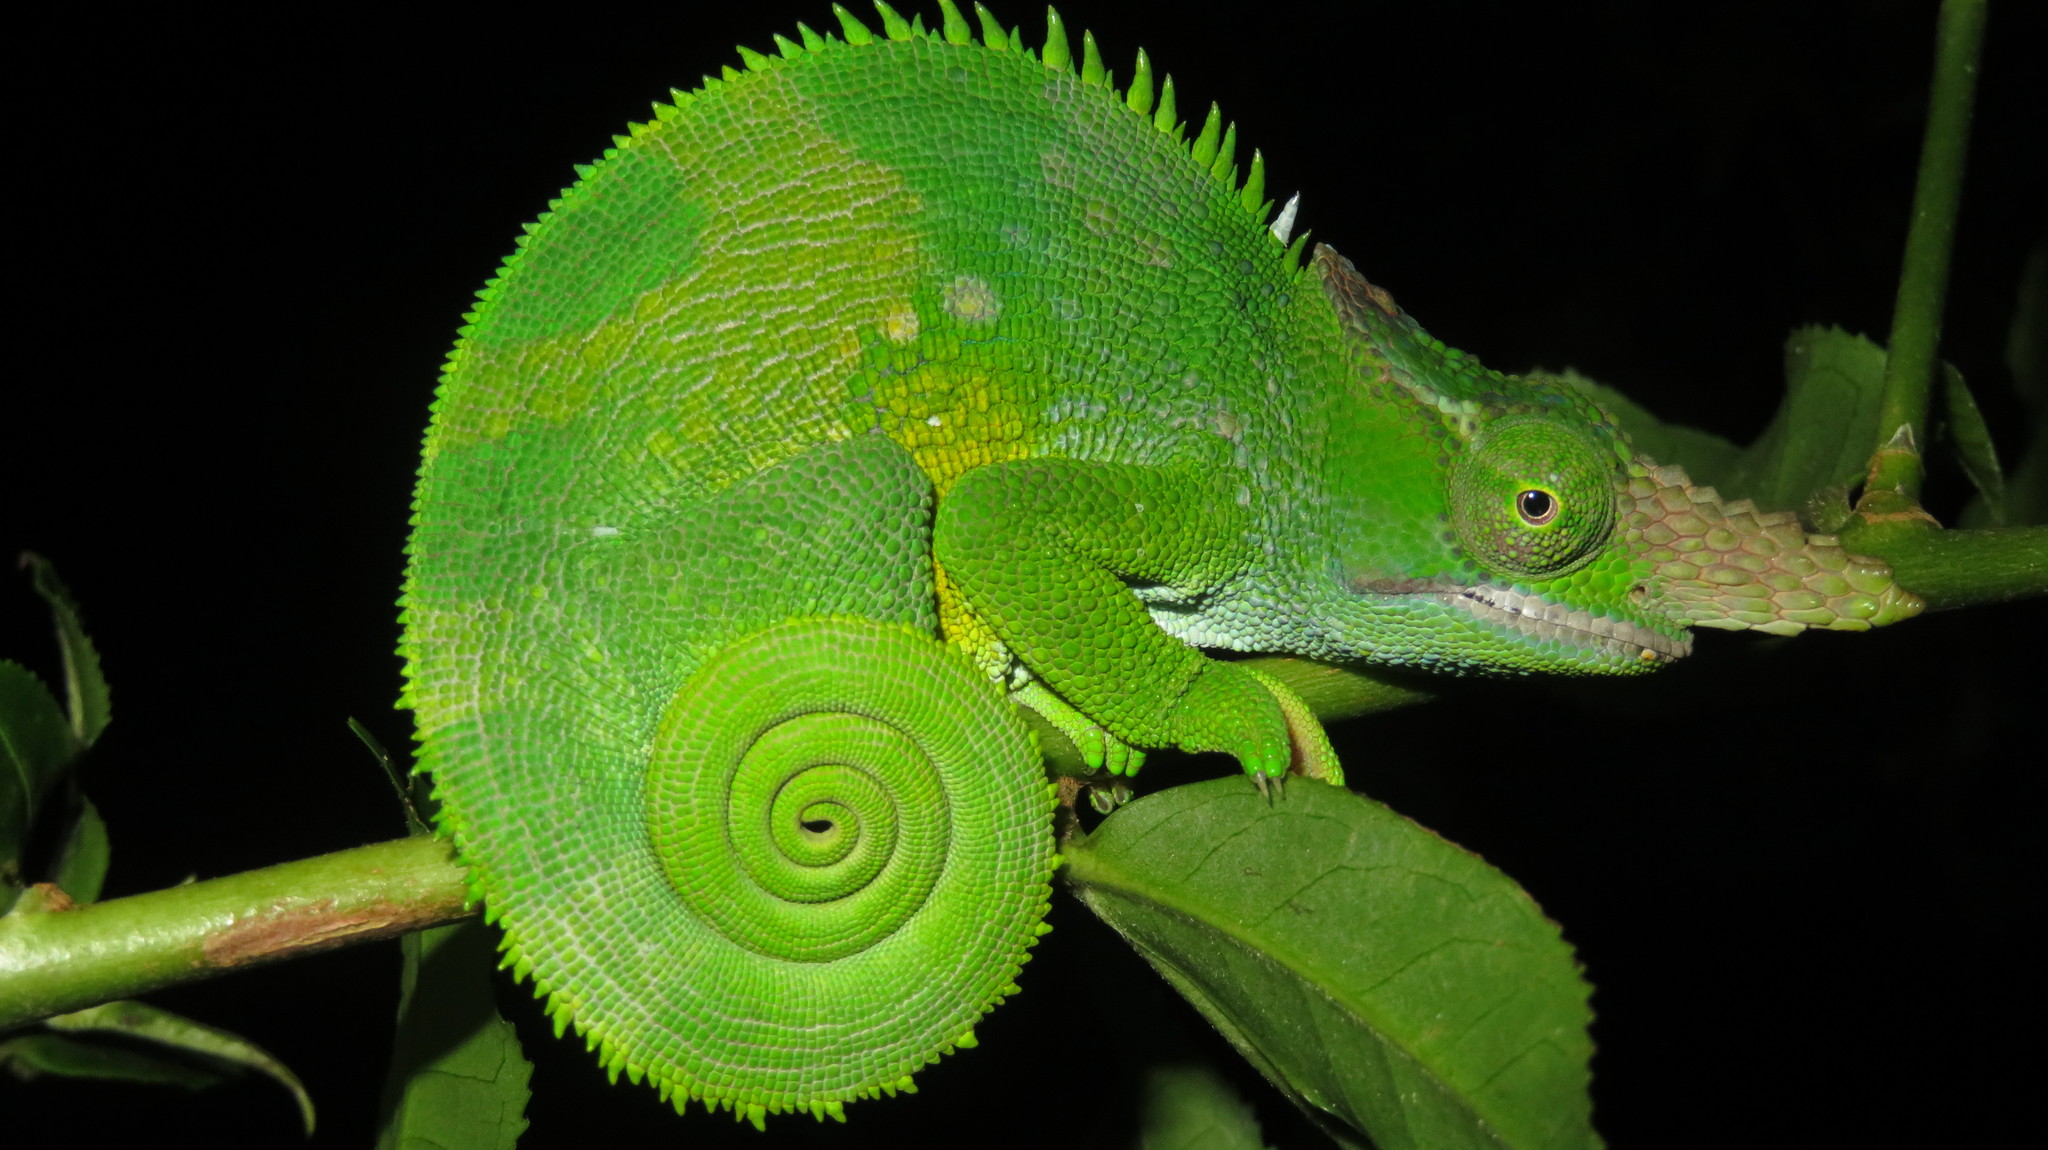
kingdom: Animalia
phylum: Chordata
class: Squamata
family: Chamaeleonidae
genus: Kinyongia
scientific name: Kinyongia multituberculata
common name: West usambara blade-horned chameleon
